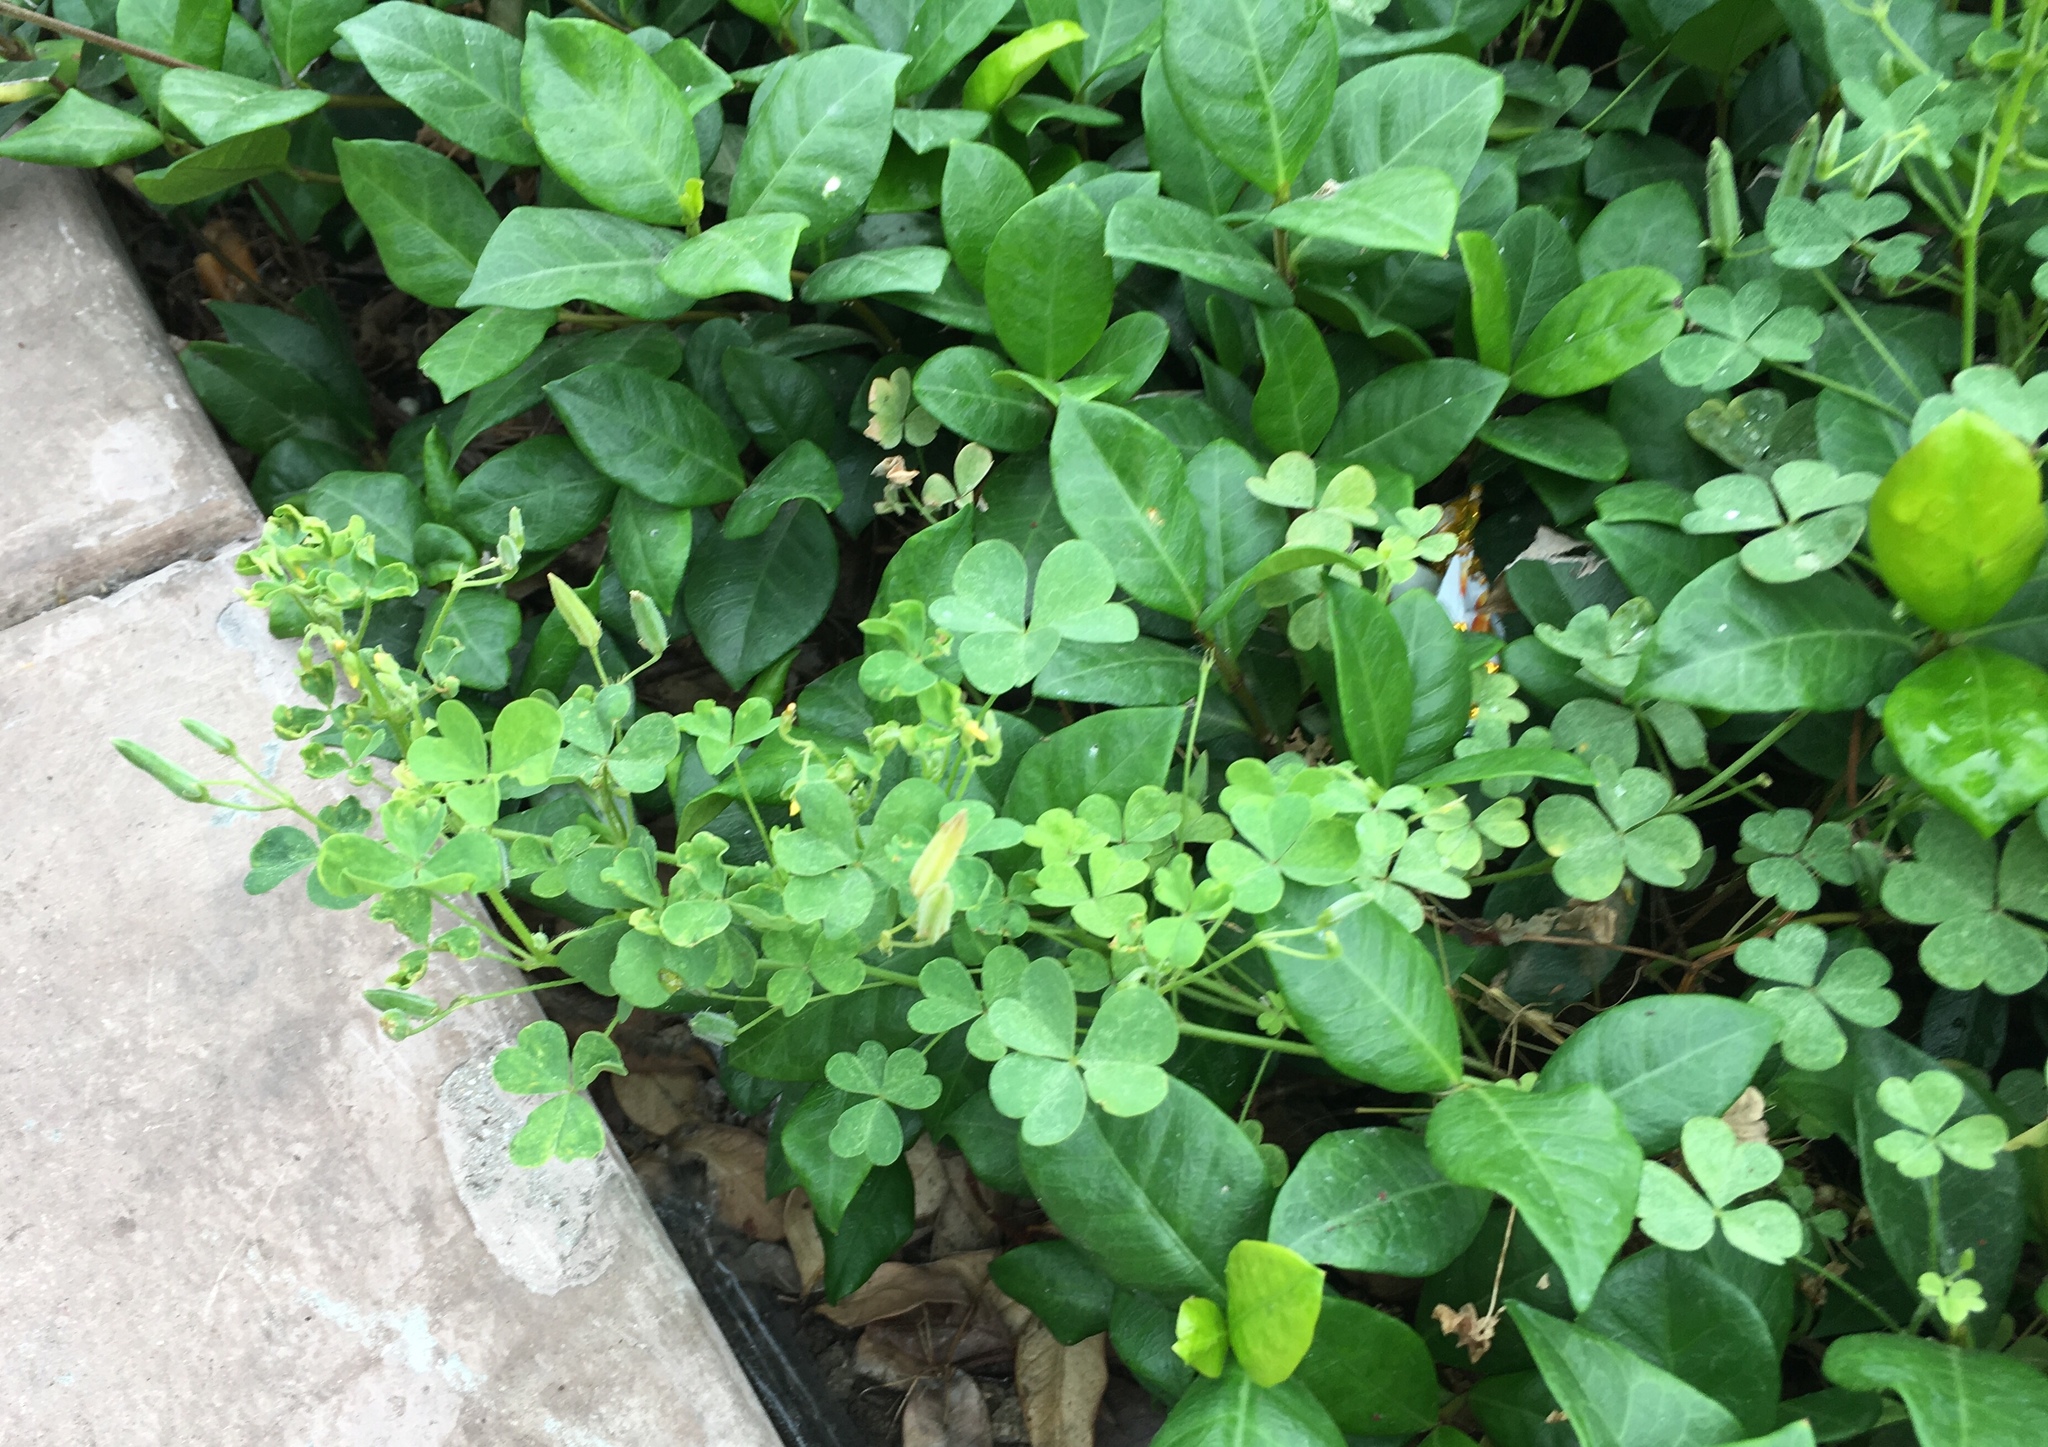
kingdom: Plantae
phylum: Tracheophyta
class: Magnoliopsida
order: Oxalidales
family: Oxalidaceae
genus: Oxalis
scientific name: Oxalis corniculata
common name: Procumbent yellow-sorrel
